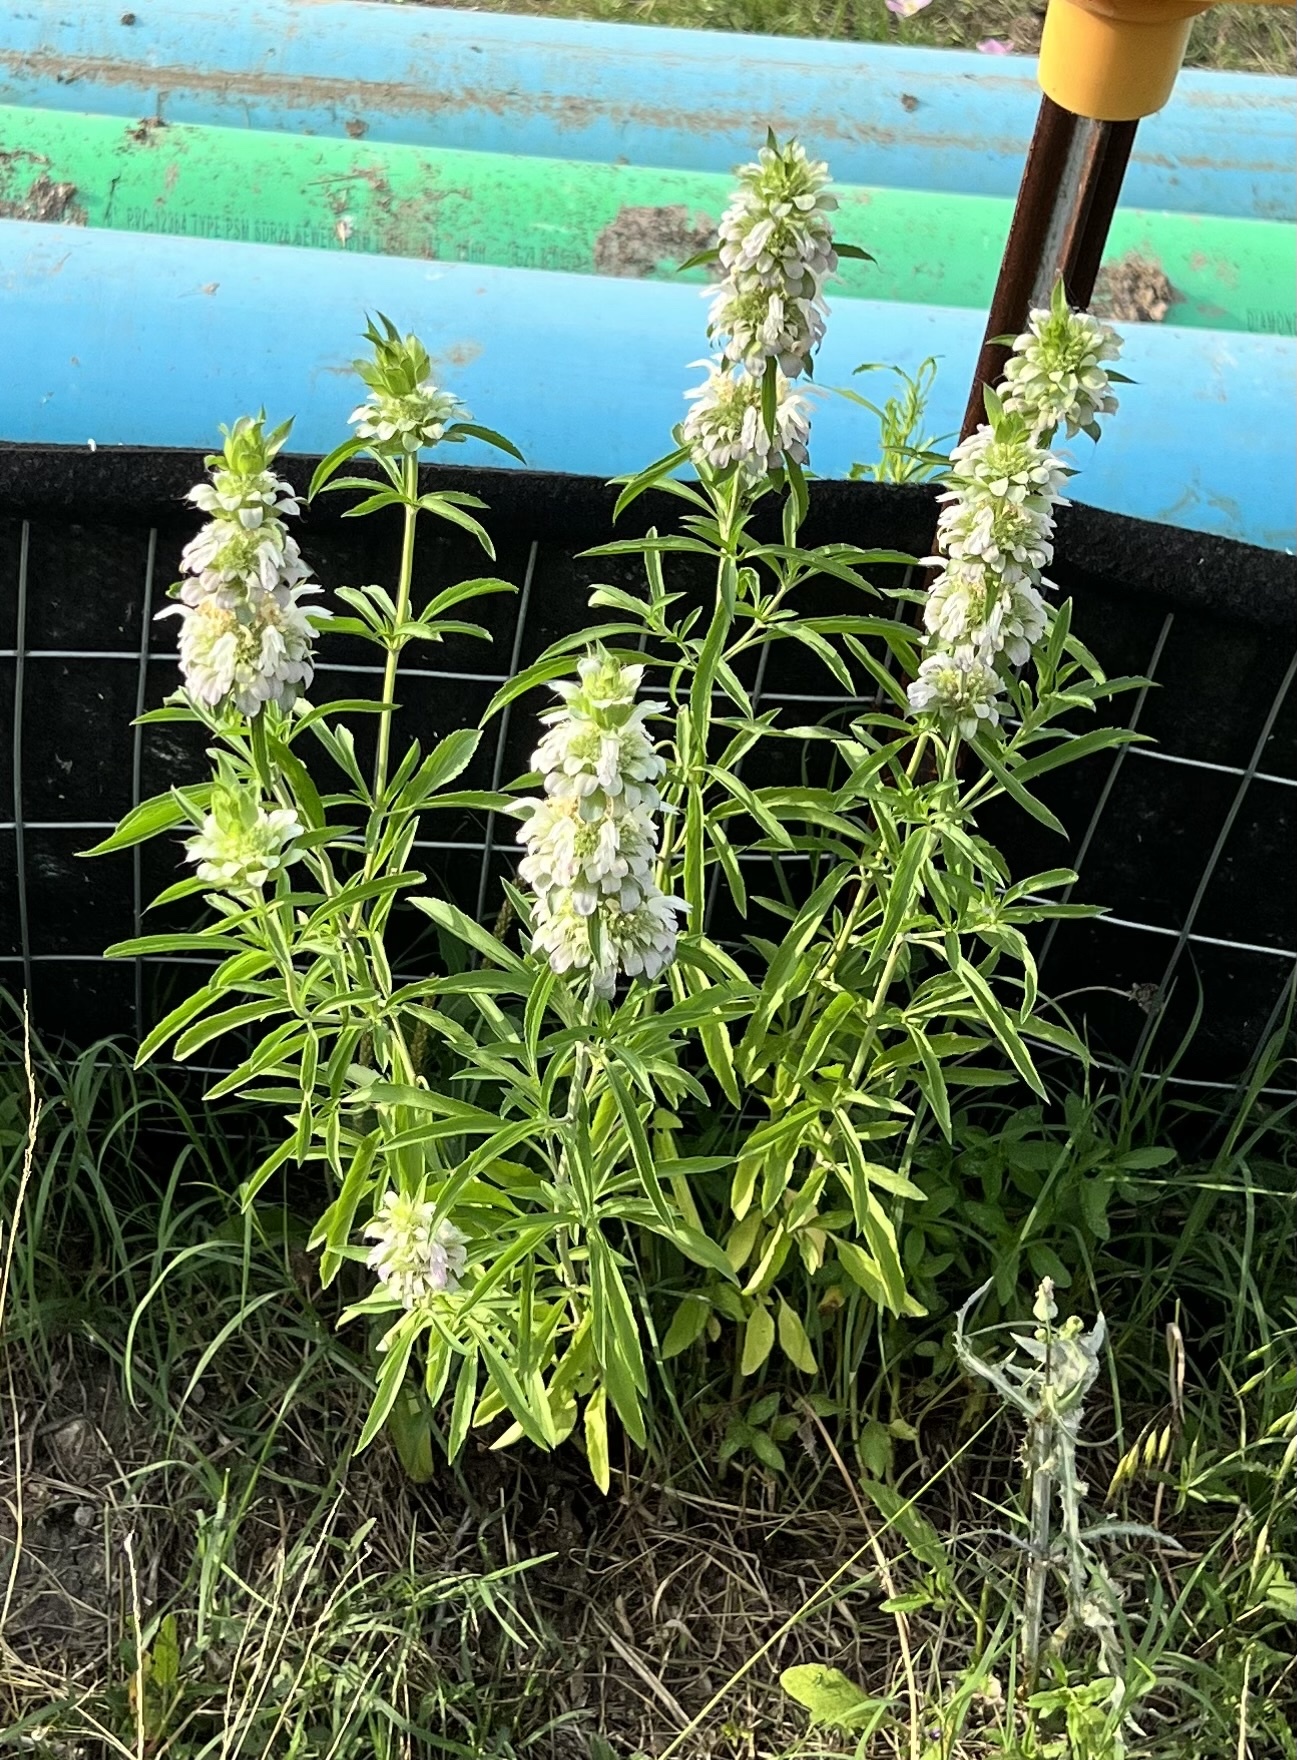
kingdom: Plantae
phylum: Tracheophyta
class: Magnoliopsida
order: Lamiales
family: Lamiaceae
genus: Monarda
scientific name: Monarda citriodora
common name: Lemon beebalm
